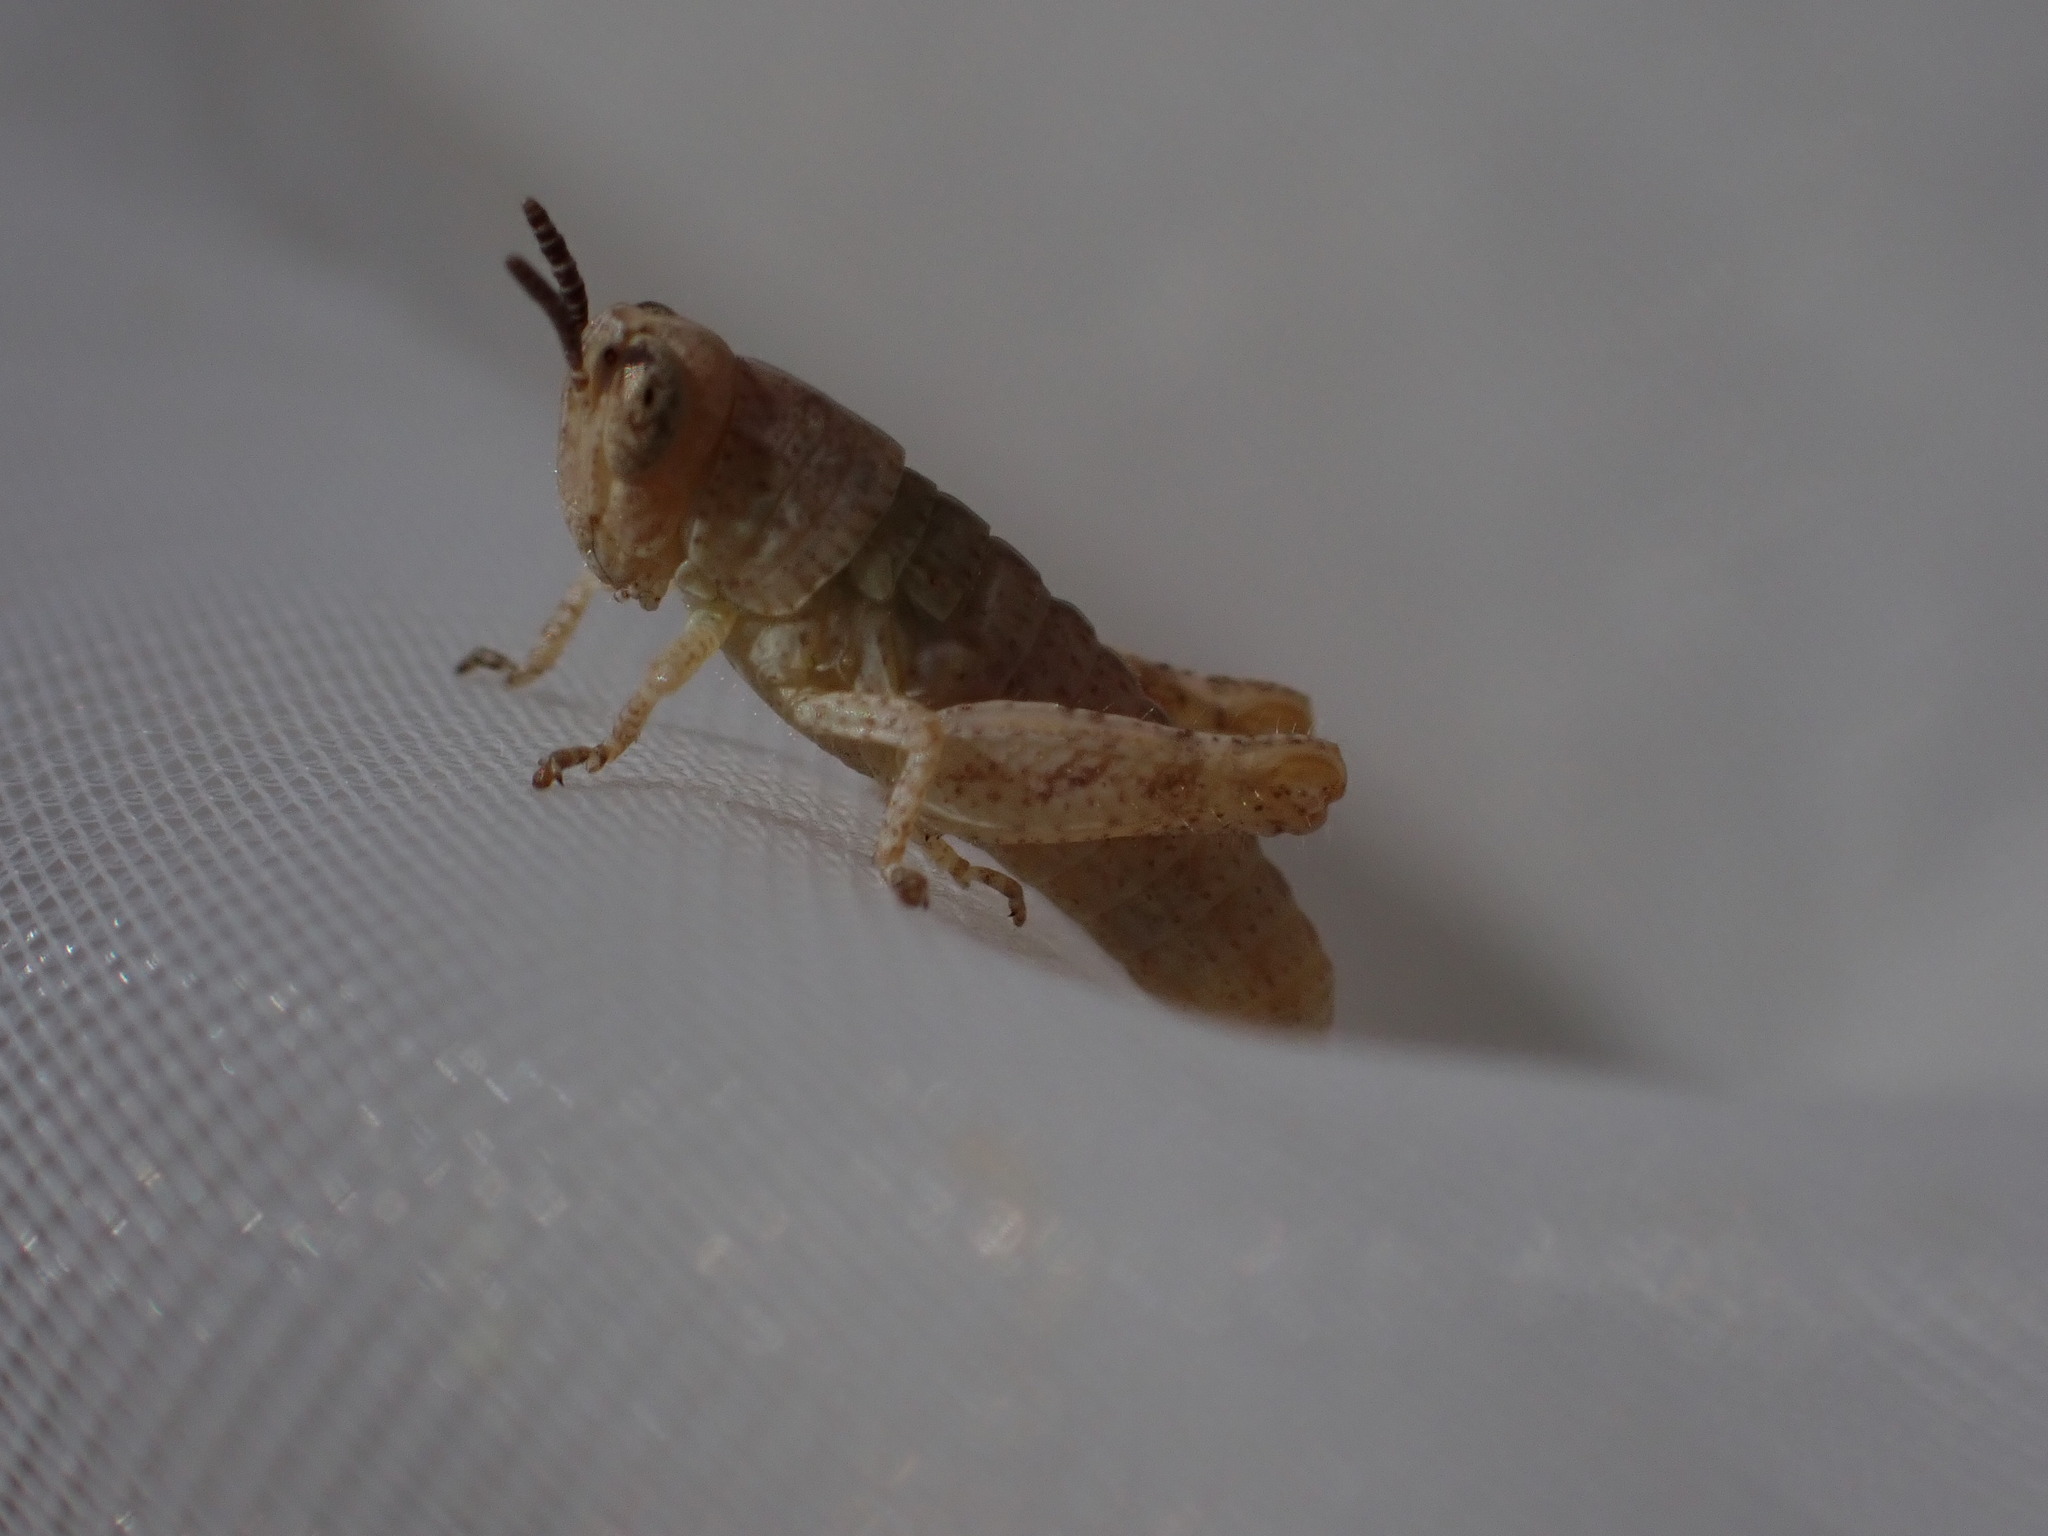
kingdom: Animalia
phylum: Arthropoda
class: Insecta
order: Orthoptera
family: Acrididae
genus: Pezotettix
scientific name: Pezotettix giornae
